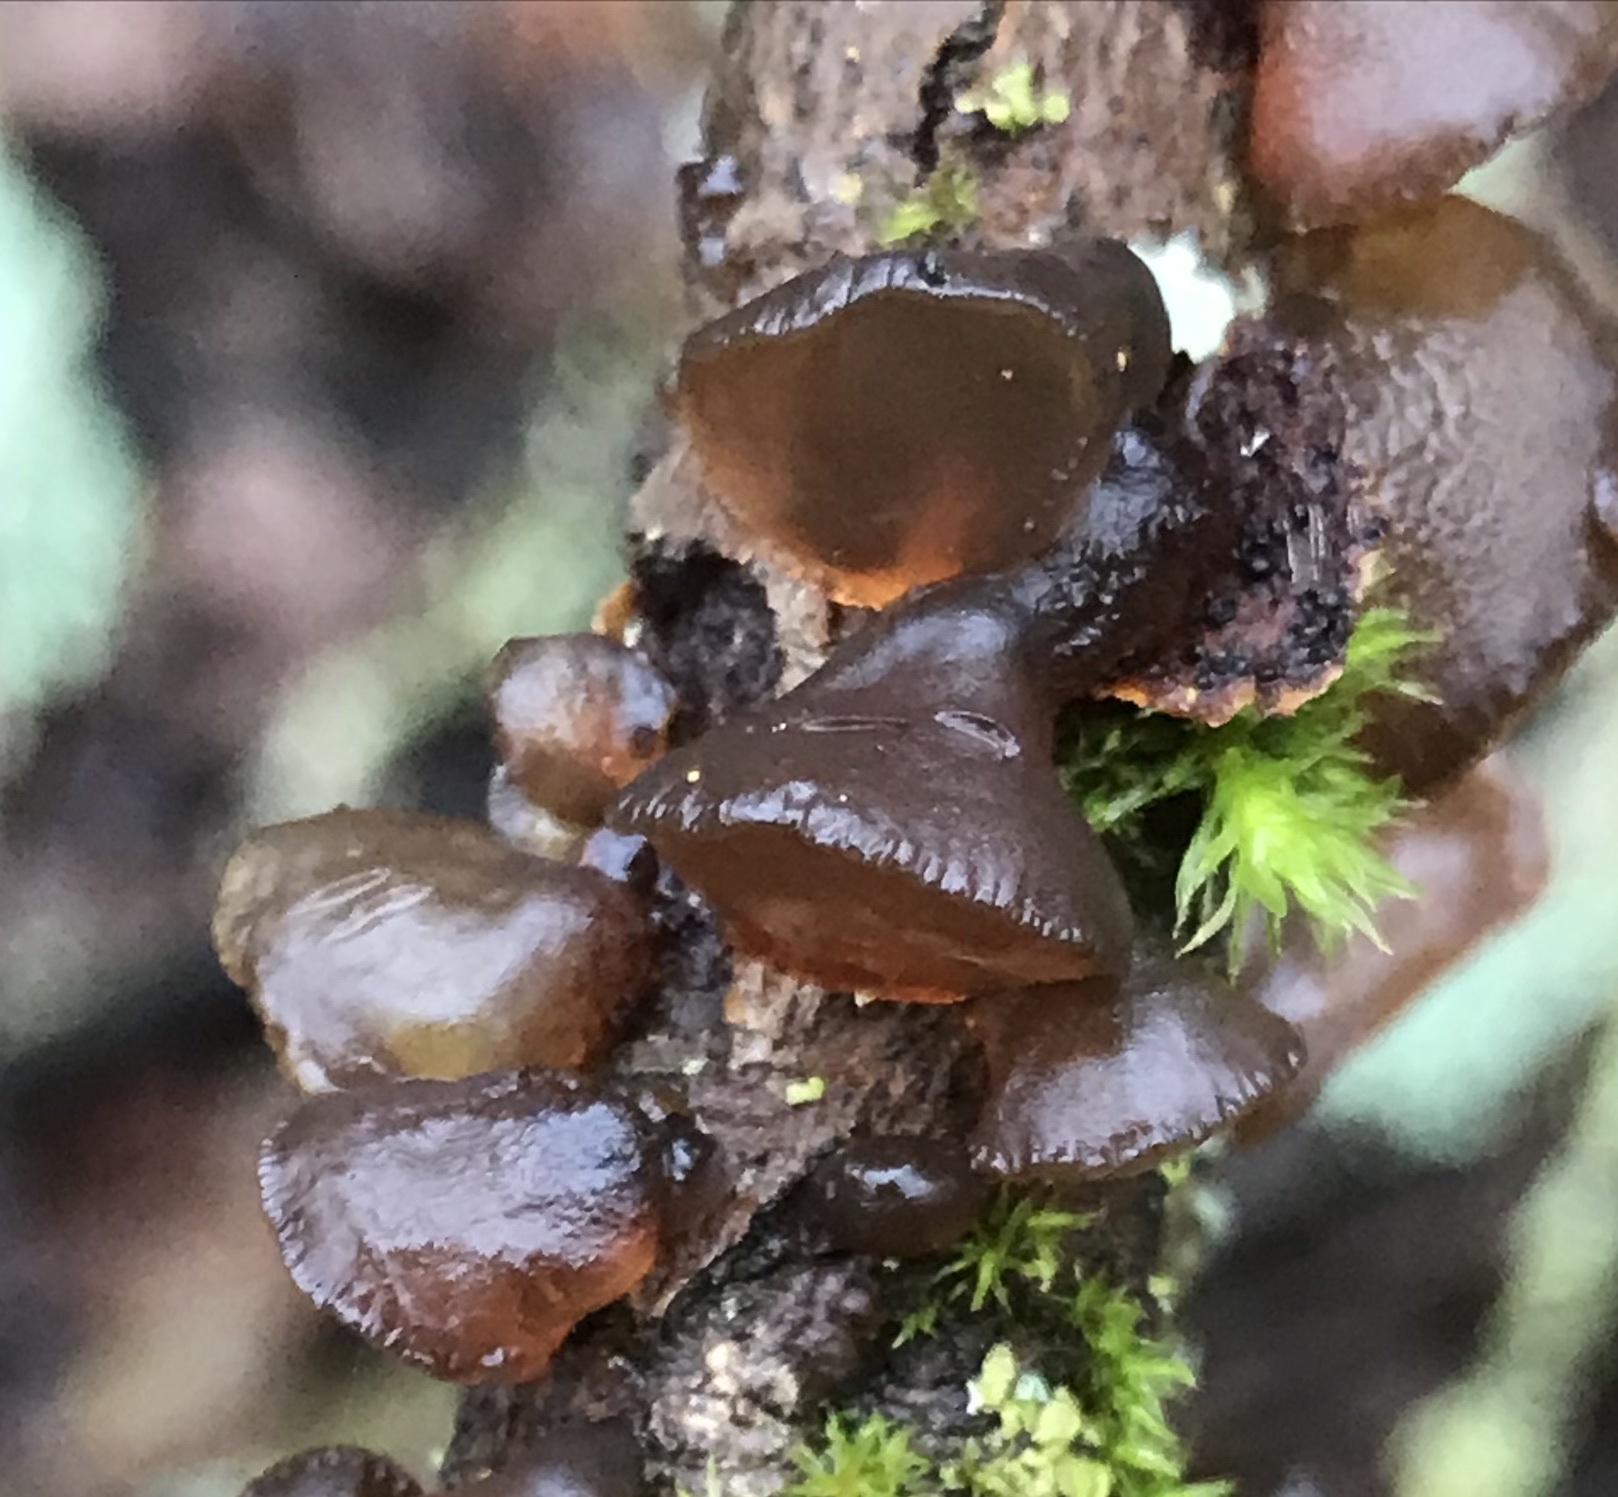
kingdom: Fungi
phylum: Basidiomycota
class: Agaricomycetes
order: Auriculariales
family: Auriculariaceae
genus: Exidia
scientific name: Exidia recisa
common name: Amber jelly
